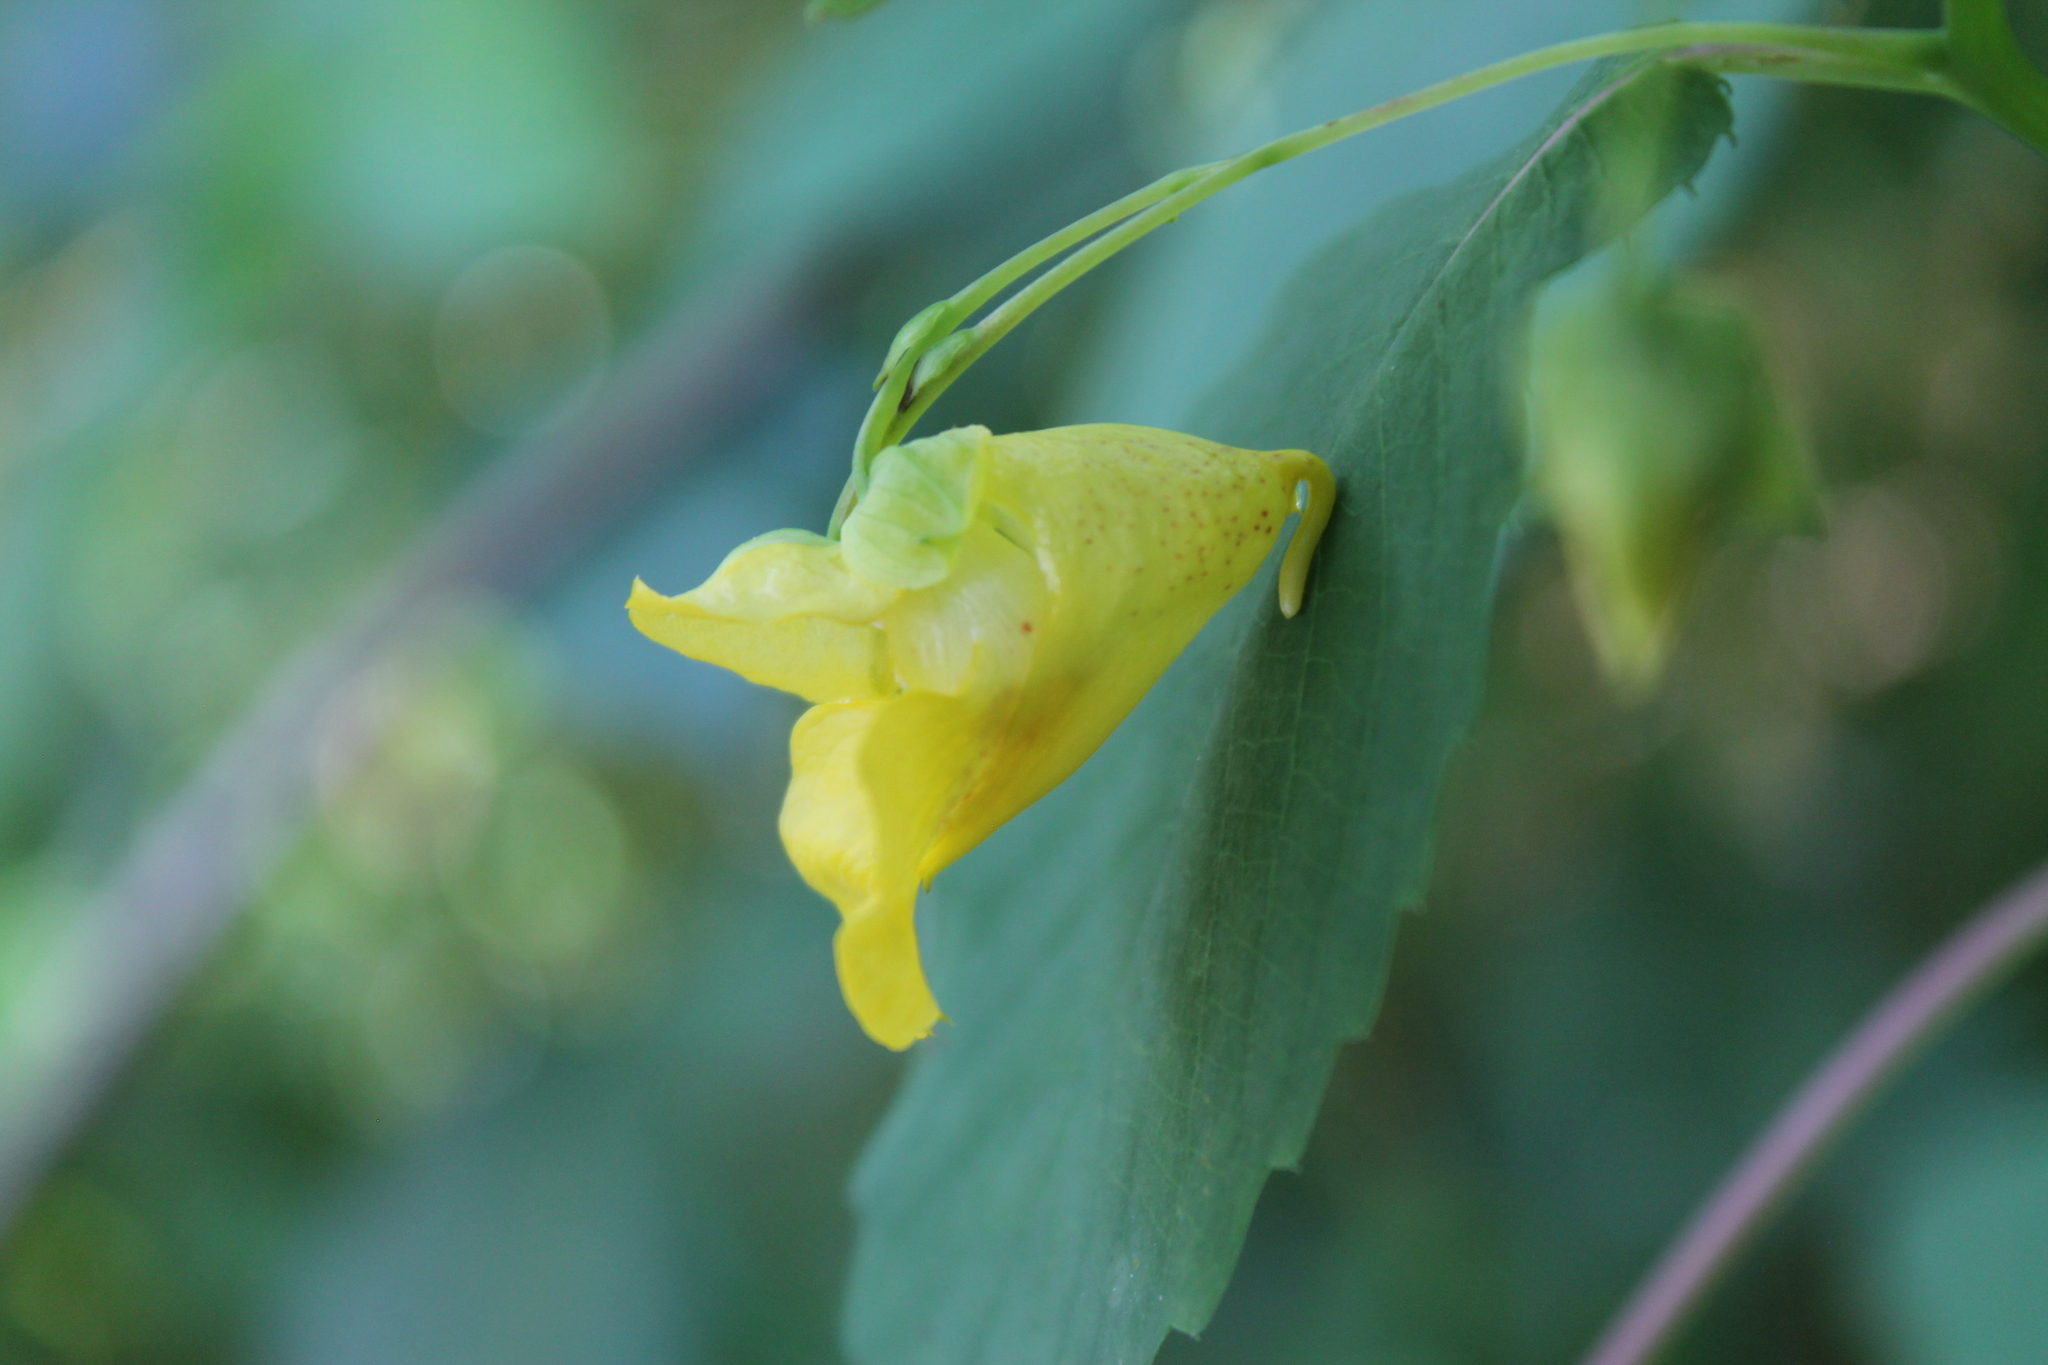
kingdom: Plantae
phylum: Tracheophyta
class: Magnoliopsida
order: Ericales
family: Balsaminaceae
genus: Impatiens
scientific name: Impatiens pallida
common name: Pale snapweed
